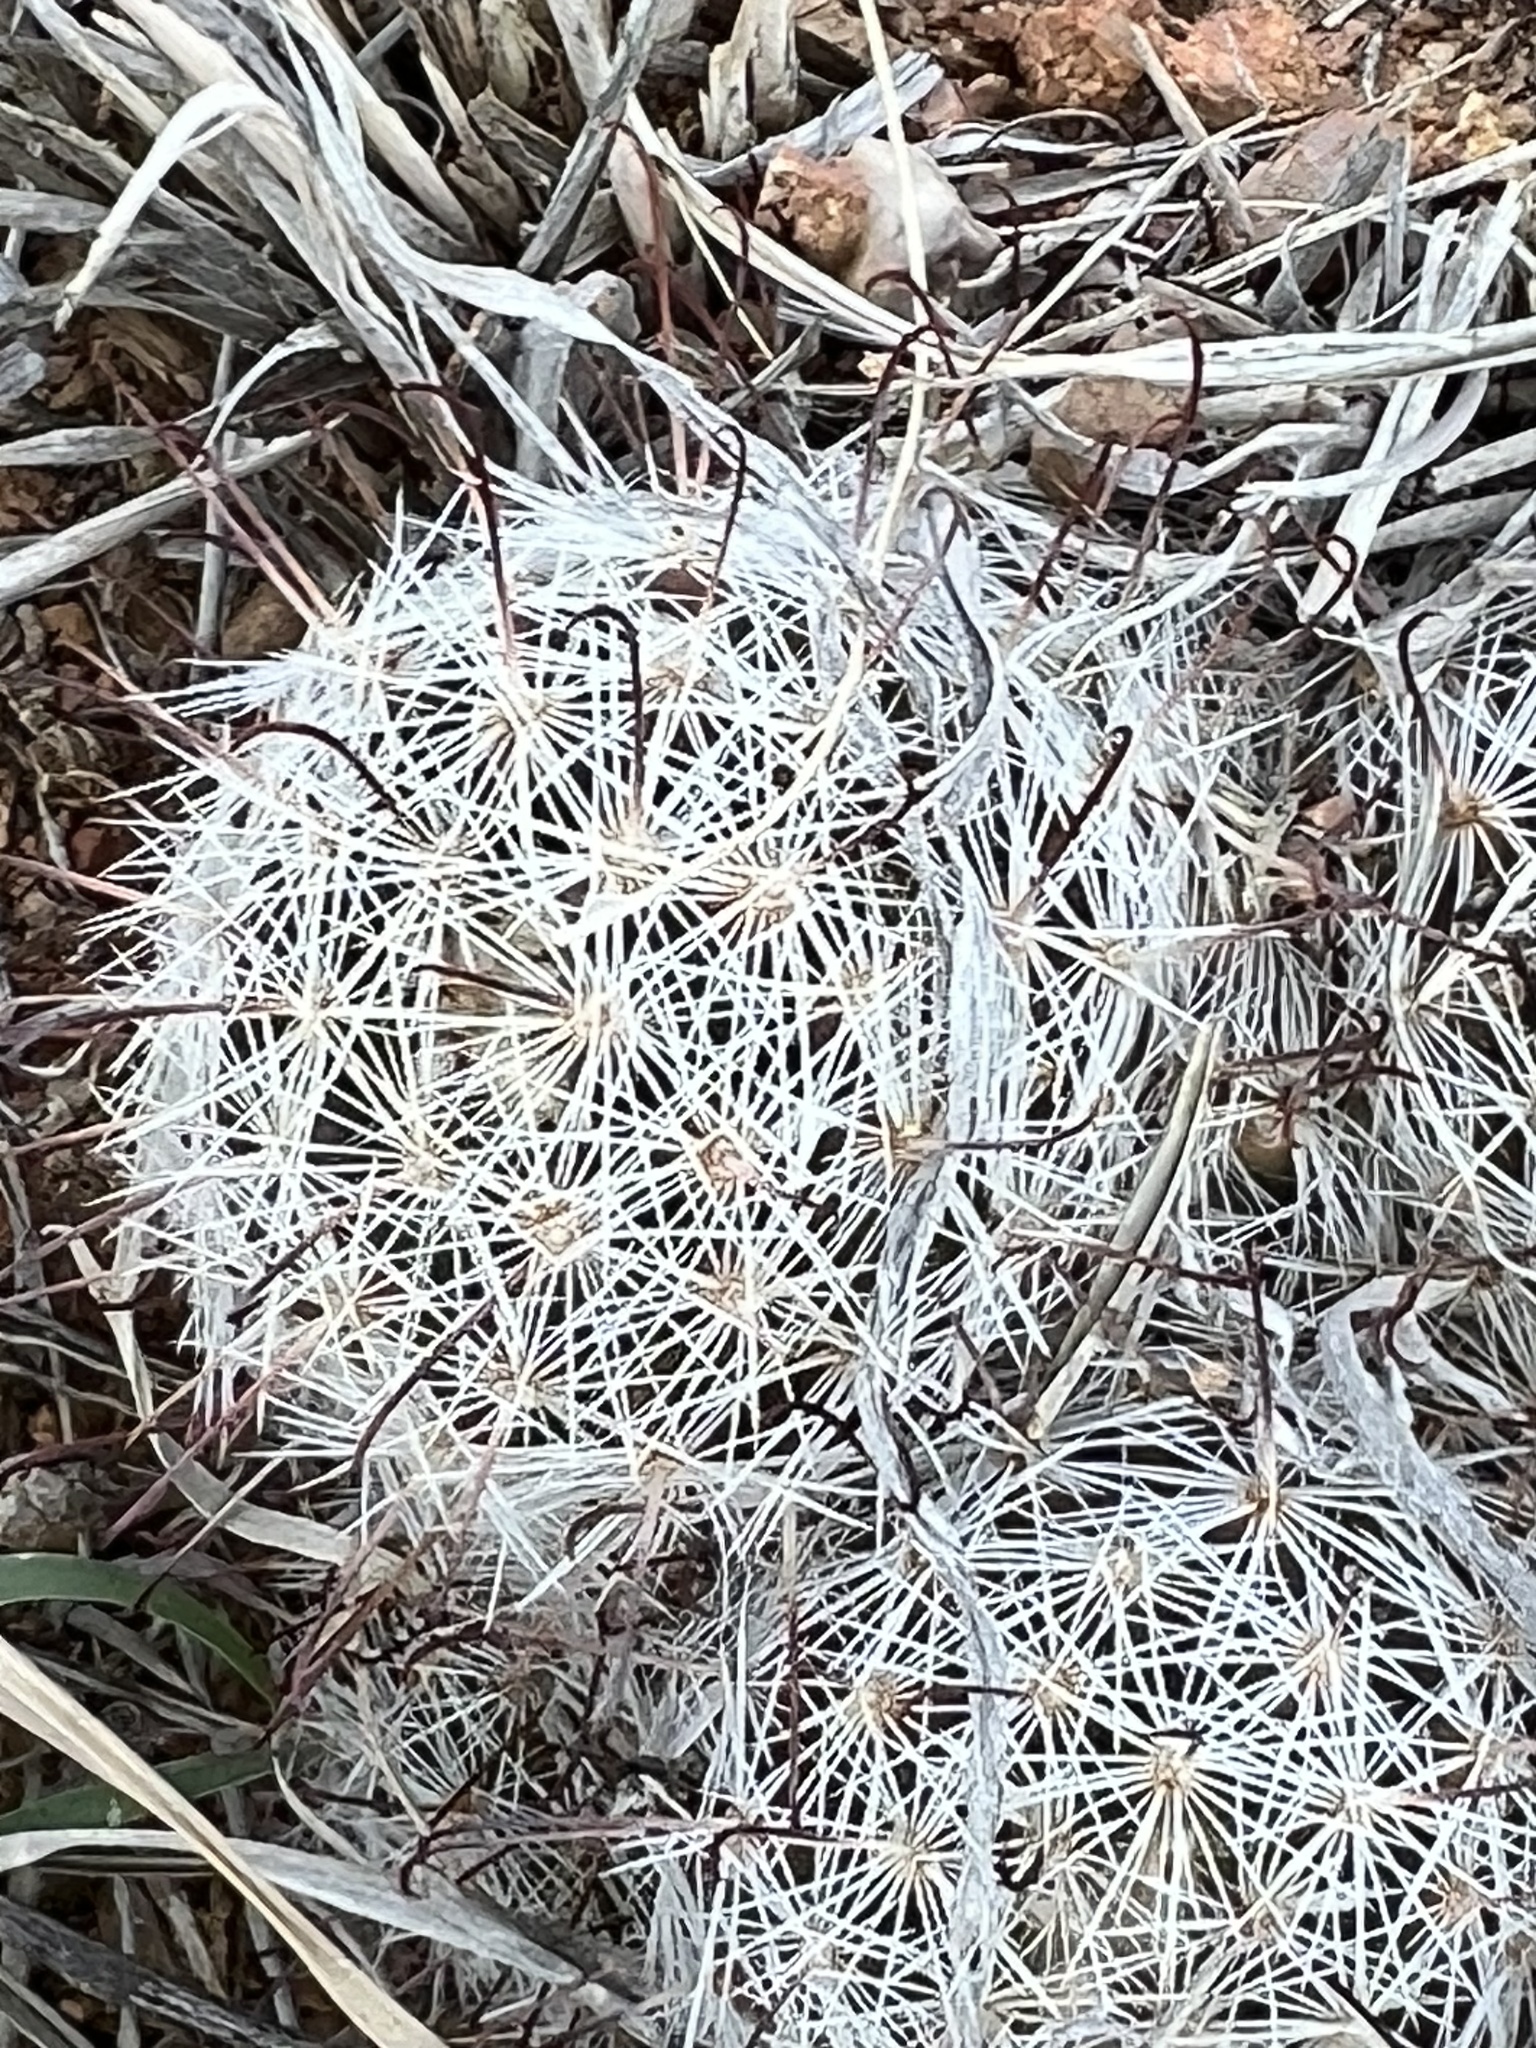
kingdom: Plantae
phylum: Tracheophyta
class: Magnoliopsida
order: Caryophyllales
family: Cactaceae
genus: Cochemiea
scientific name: Cochemiea grahamii
